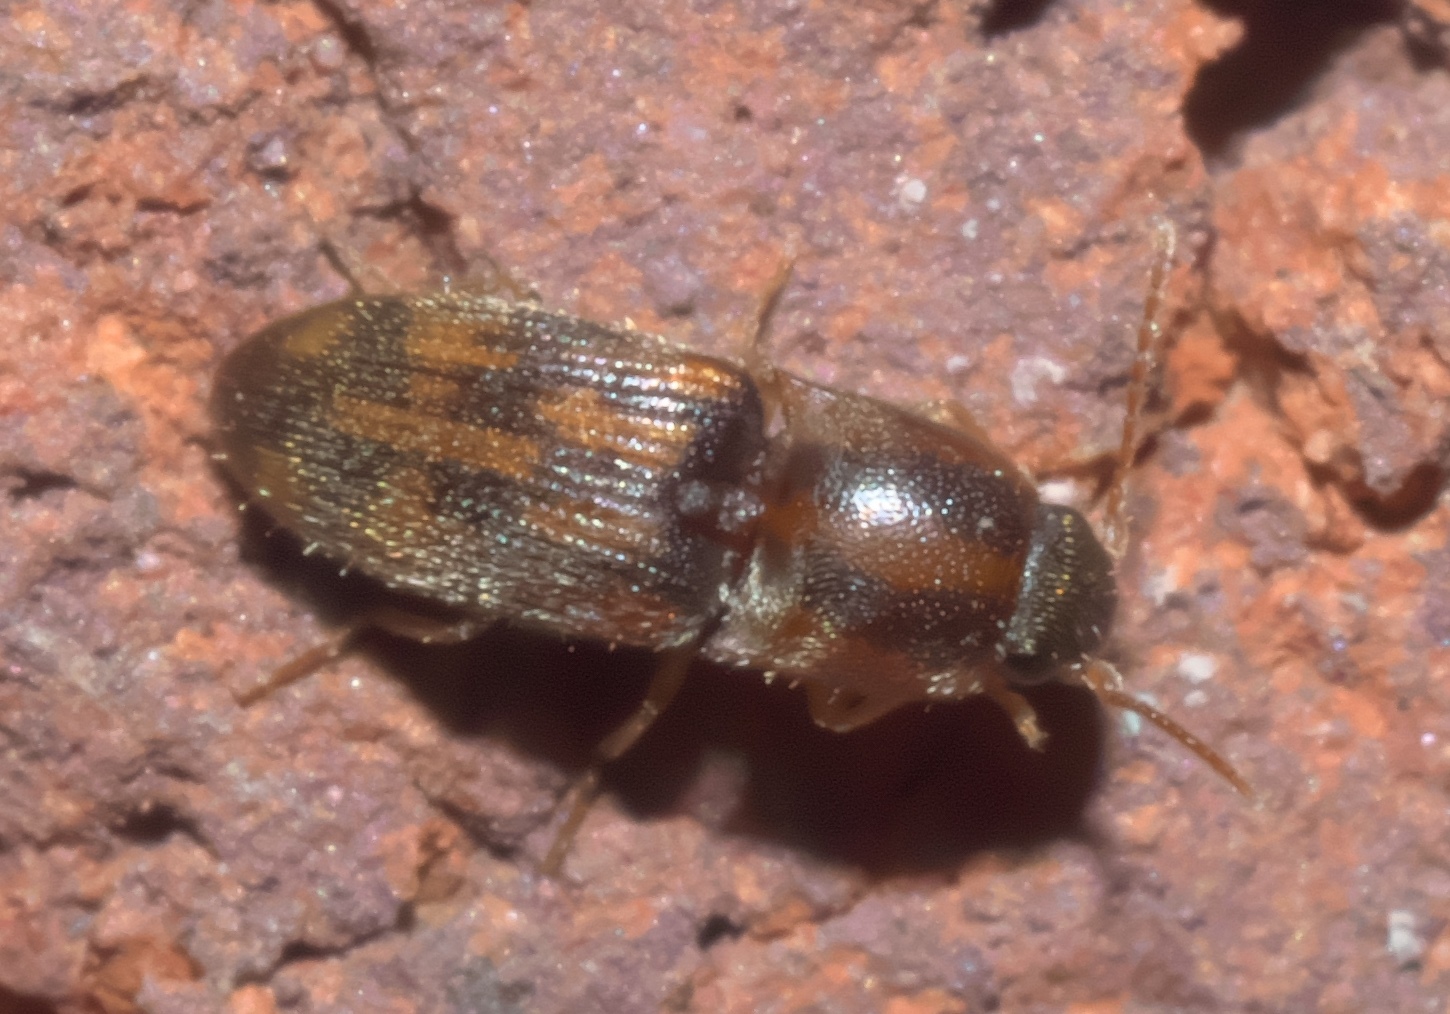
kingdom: Animalia
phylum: Arthropoda
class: Insecta
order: Coleoptera
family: Elateridae
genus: Monocrepidius
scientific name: Monocrepidius bellus
